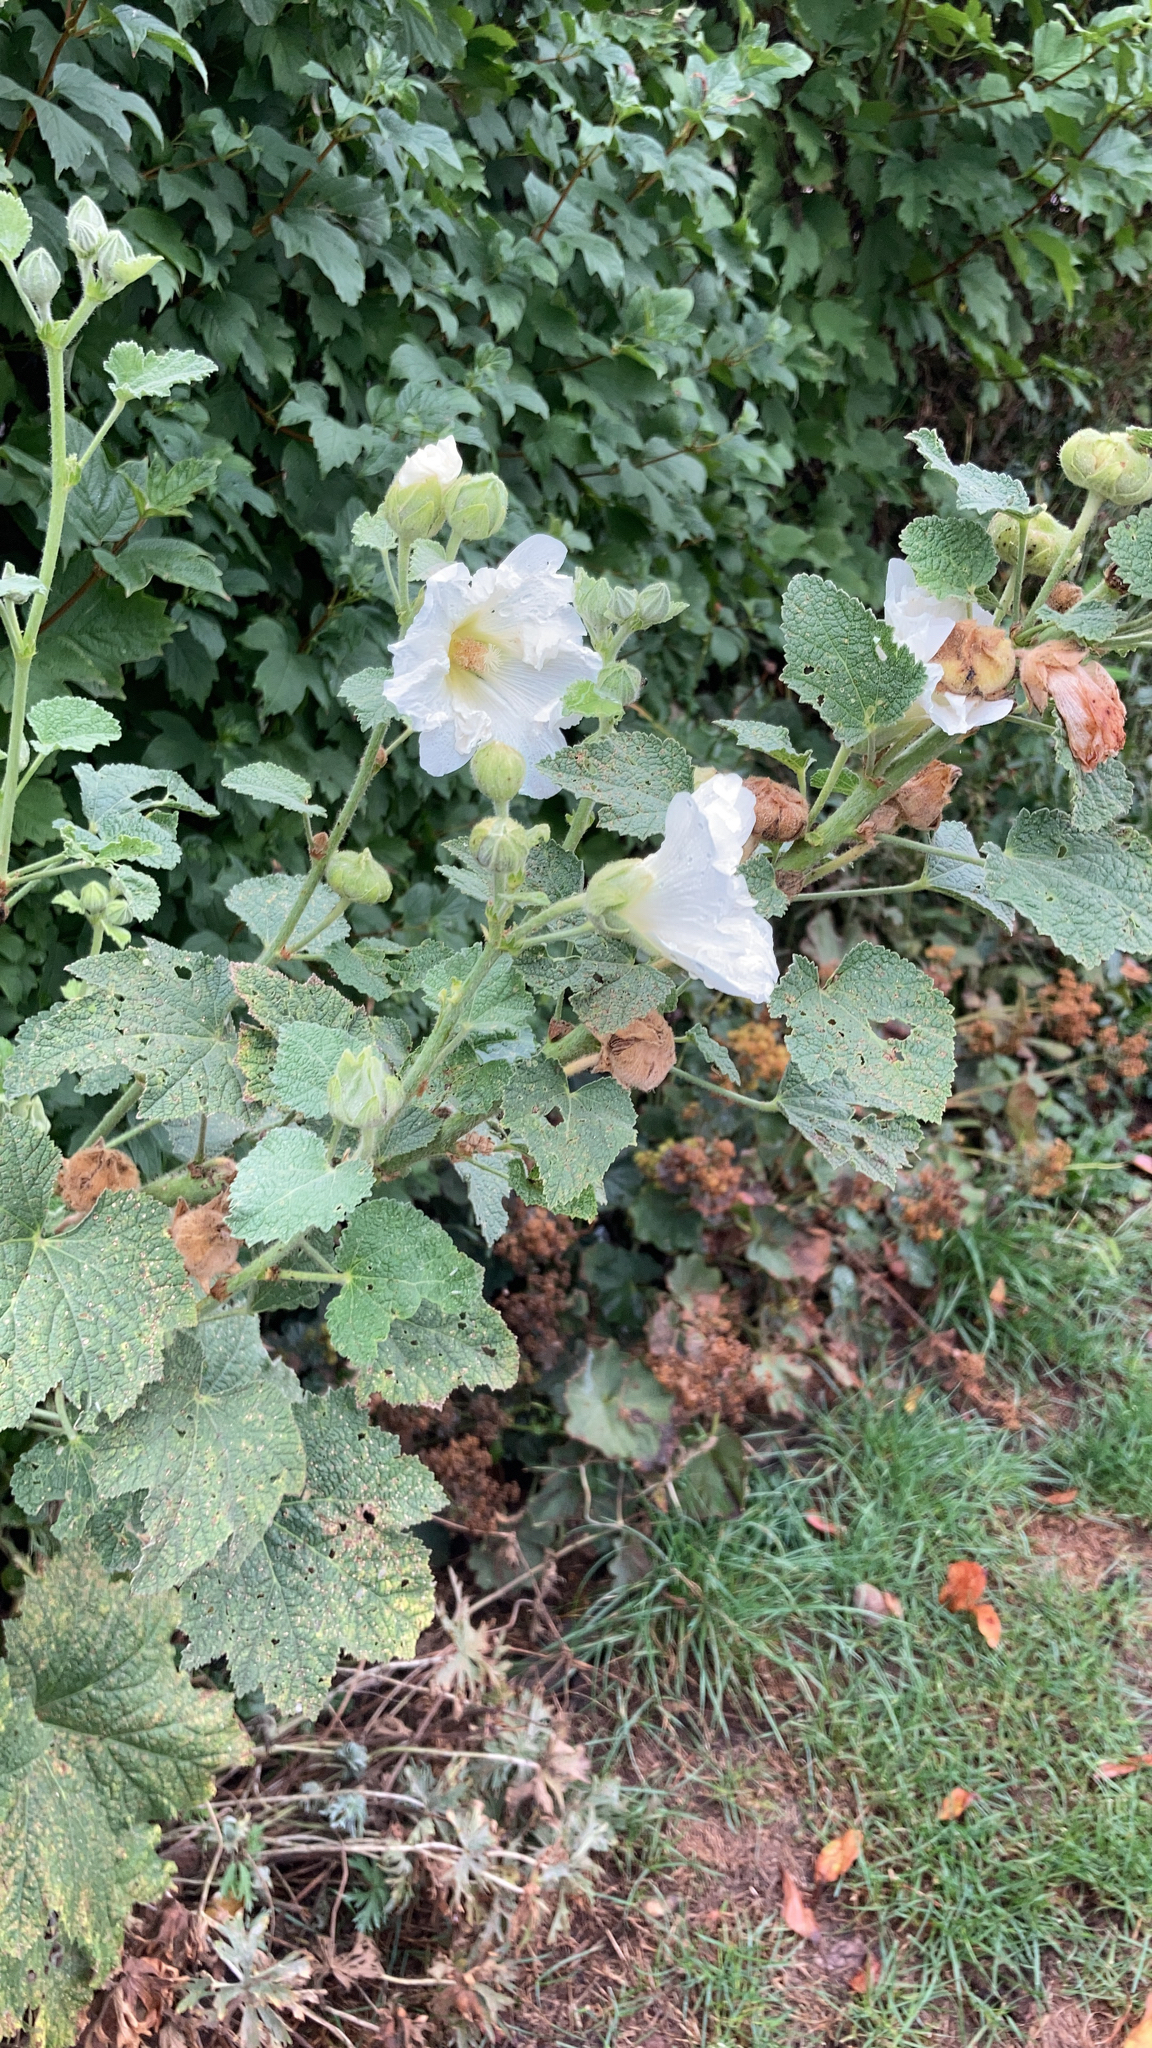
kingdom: Plantae
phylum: Tracheophyta
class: Magnoliopsida
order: Malvales
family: Malvaceae
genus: Alcea
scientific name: Alcea rosea
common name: Hollyhock
